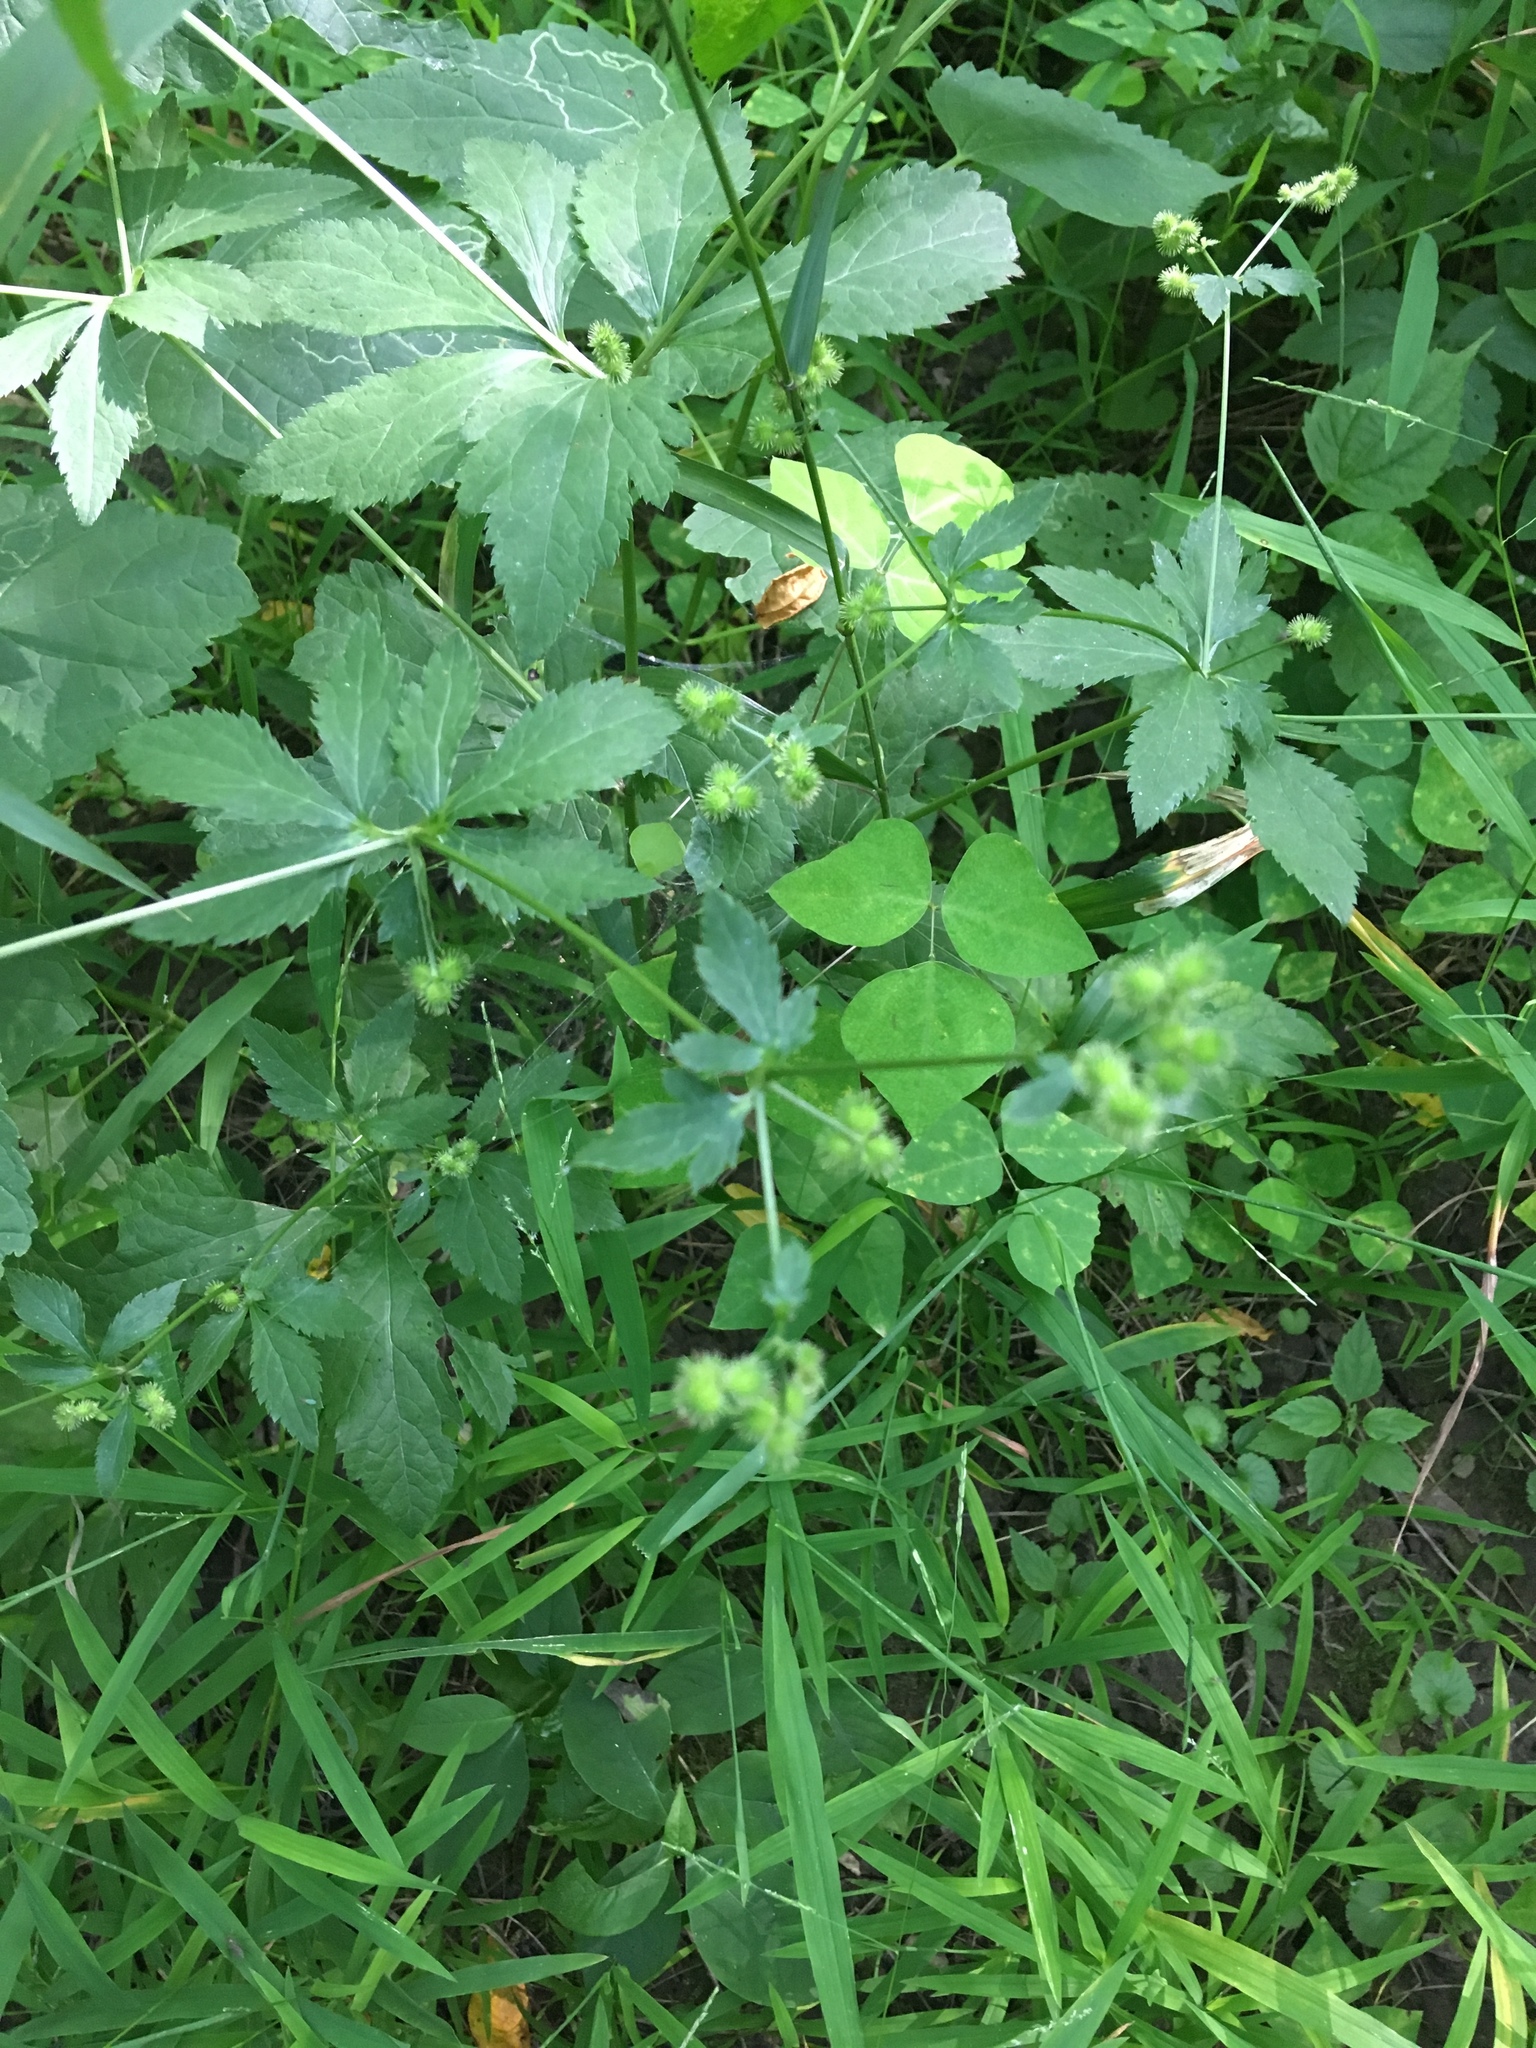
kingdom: Plantae
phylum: Tracheophyta
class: Magnoliopsida
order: Apiales
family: Apiaceae
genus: Sanicula
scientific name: Sanicula canadensis
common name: Canada sanicle
